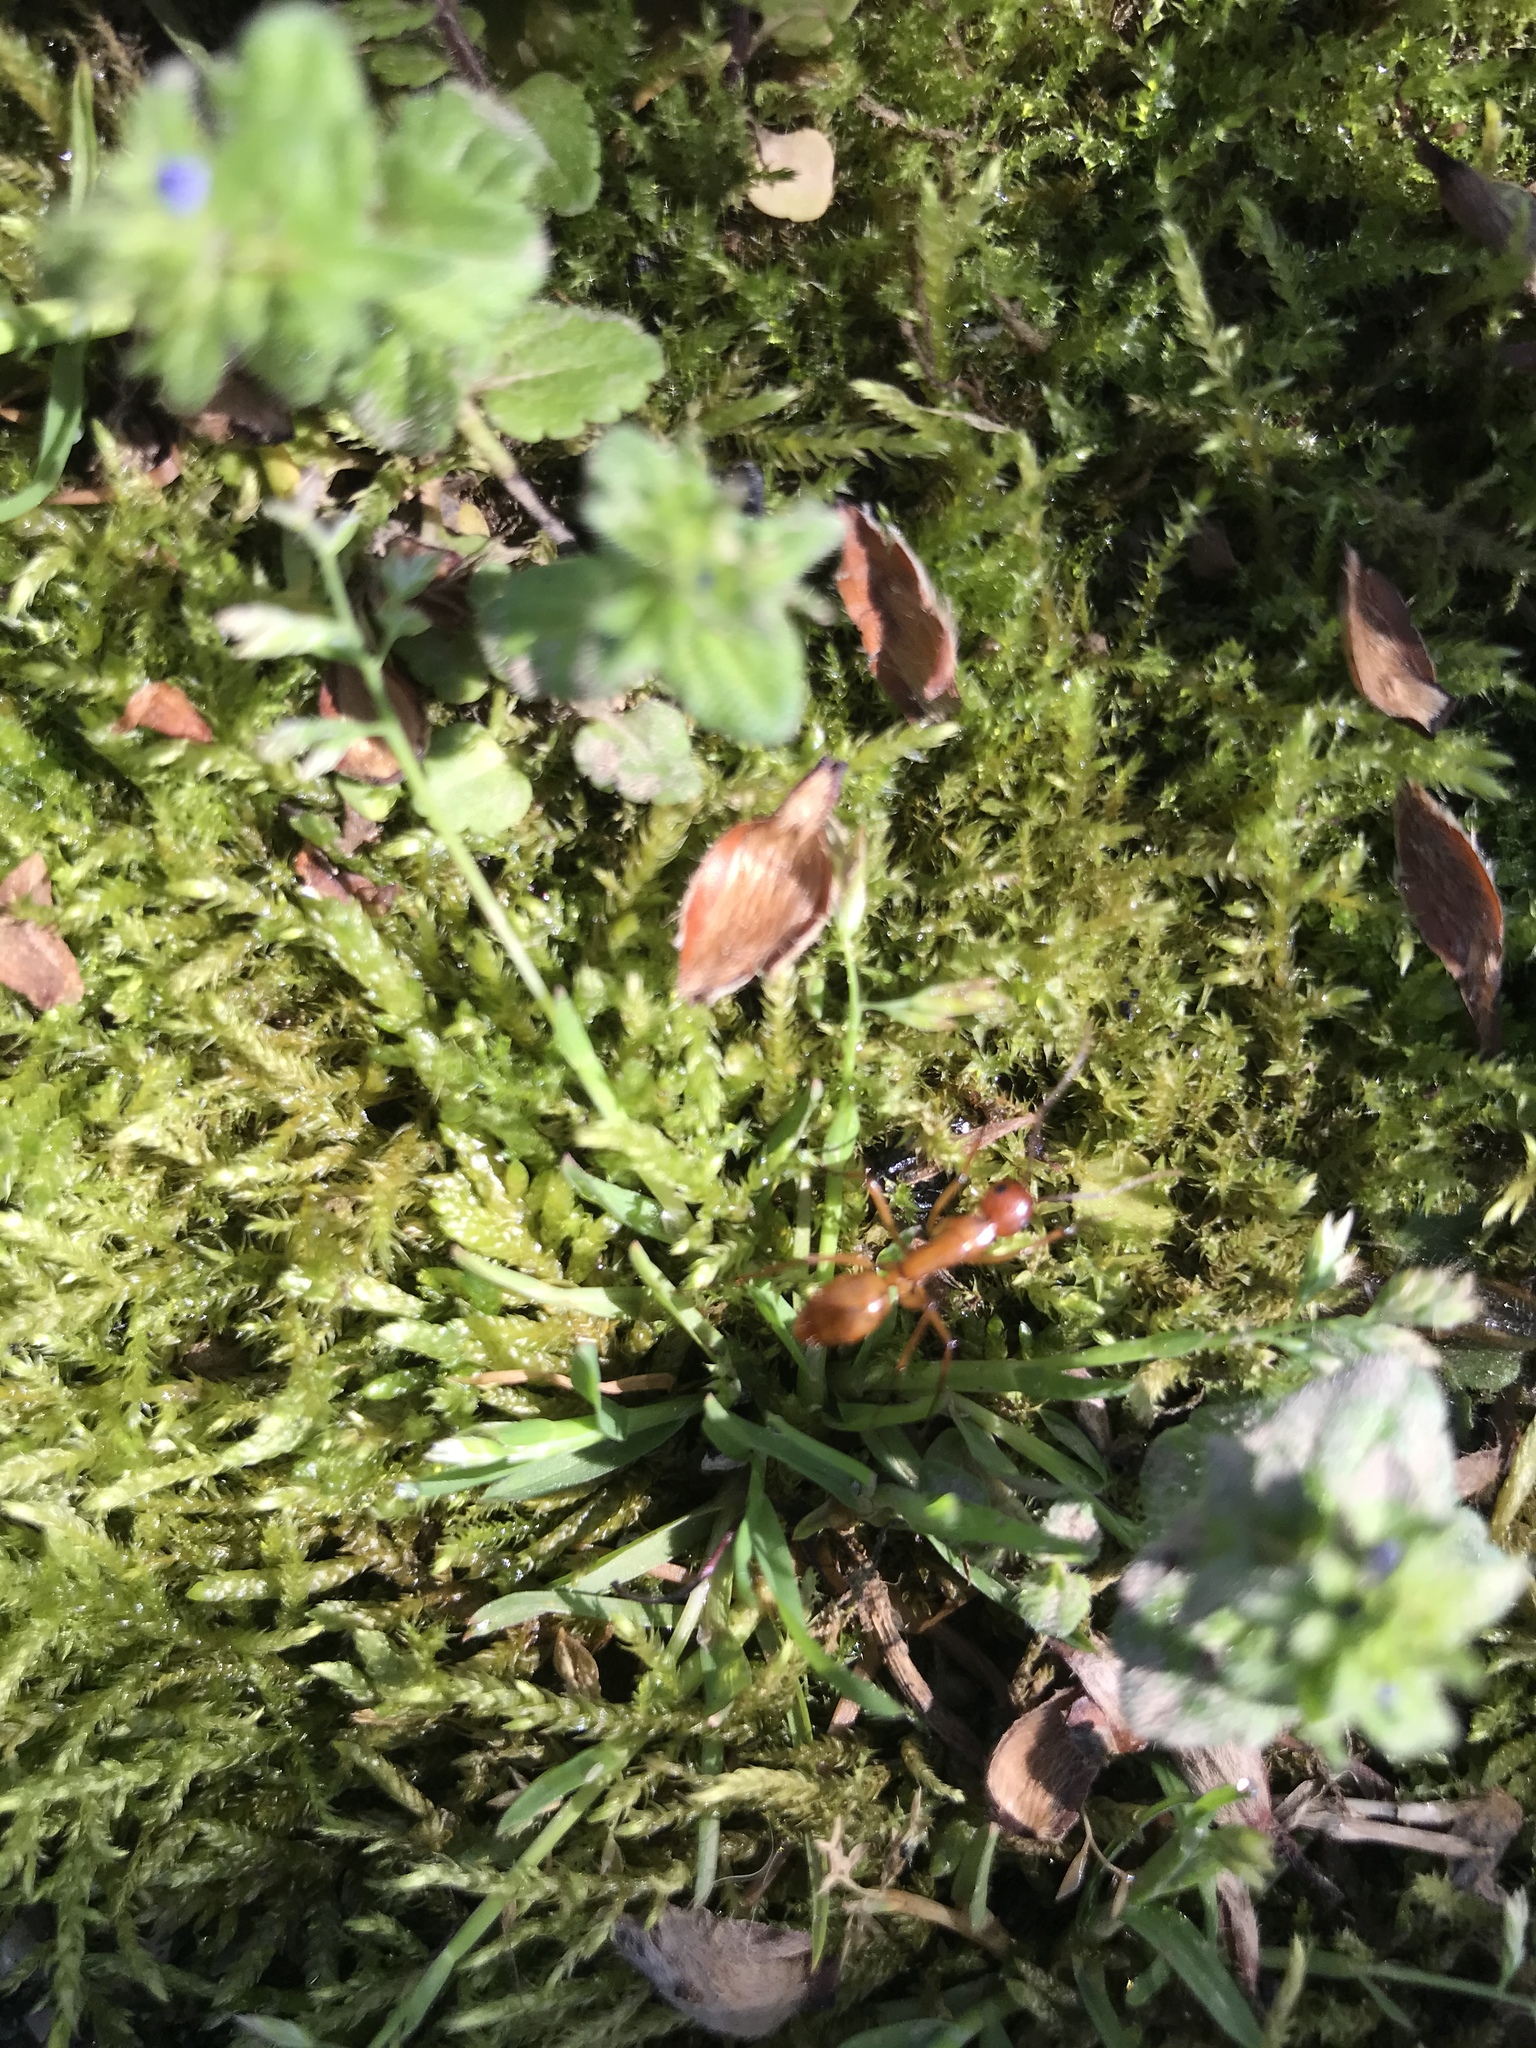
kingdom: Animalia
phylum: Arthropoda
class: Insecta
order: Hymenoptera
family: Formicidae
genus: Camponotus
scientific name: Camponotus castaneus
